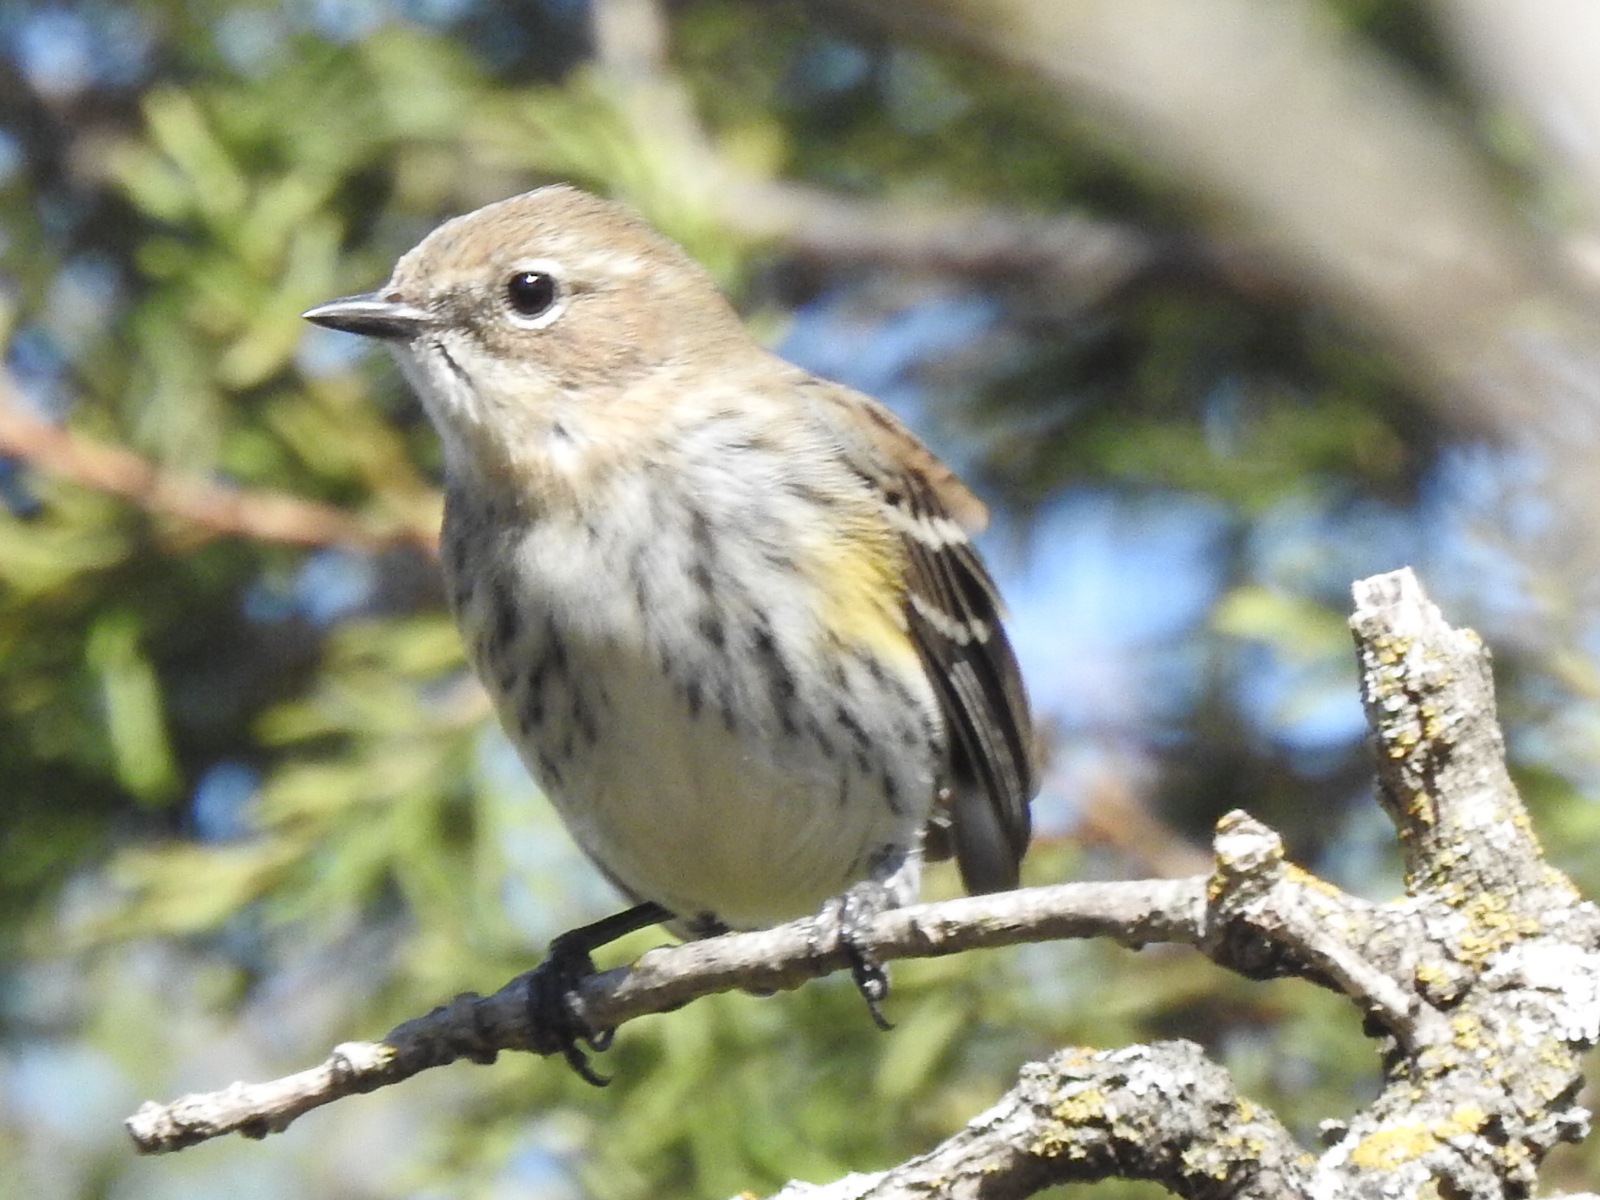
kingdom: Animalia
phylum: Chordata
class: Aves
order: Passeriformes
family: Parulidae
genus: Setophaga
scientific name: Setophaga coronata
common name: Myrtle warbler
